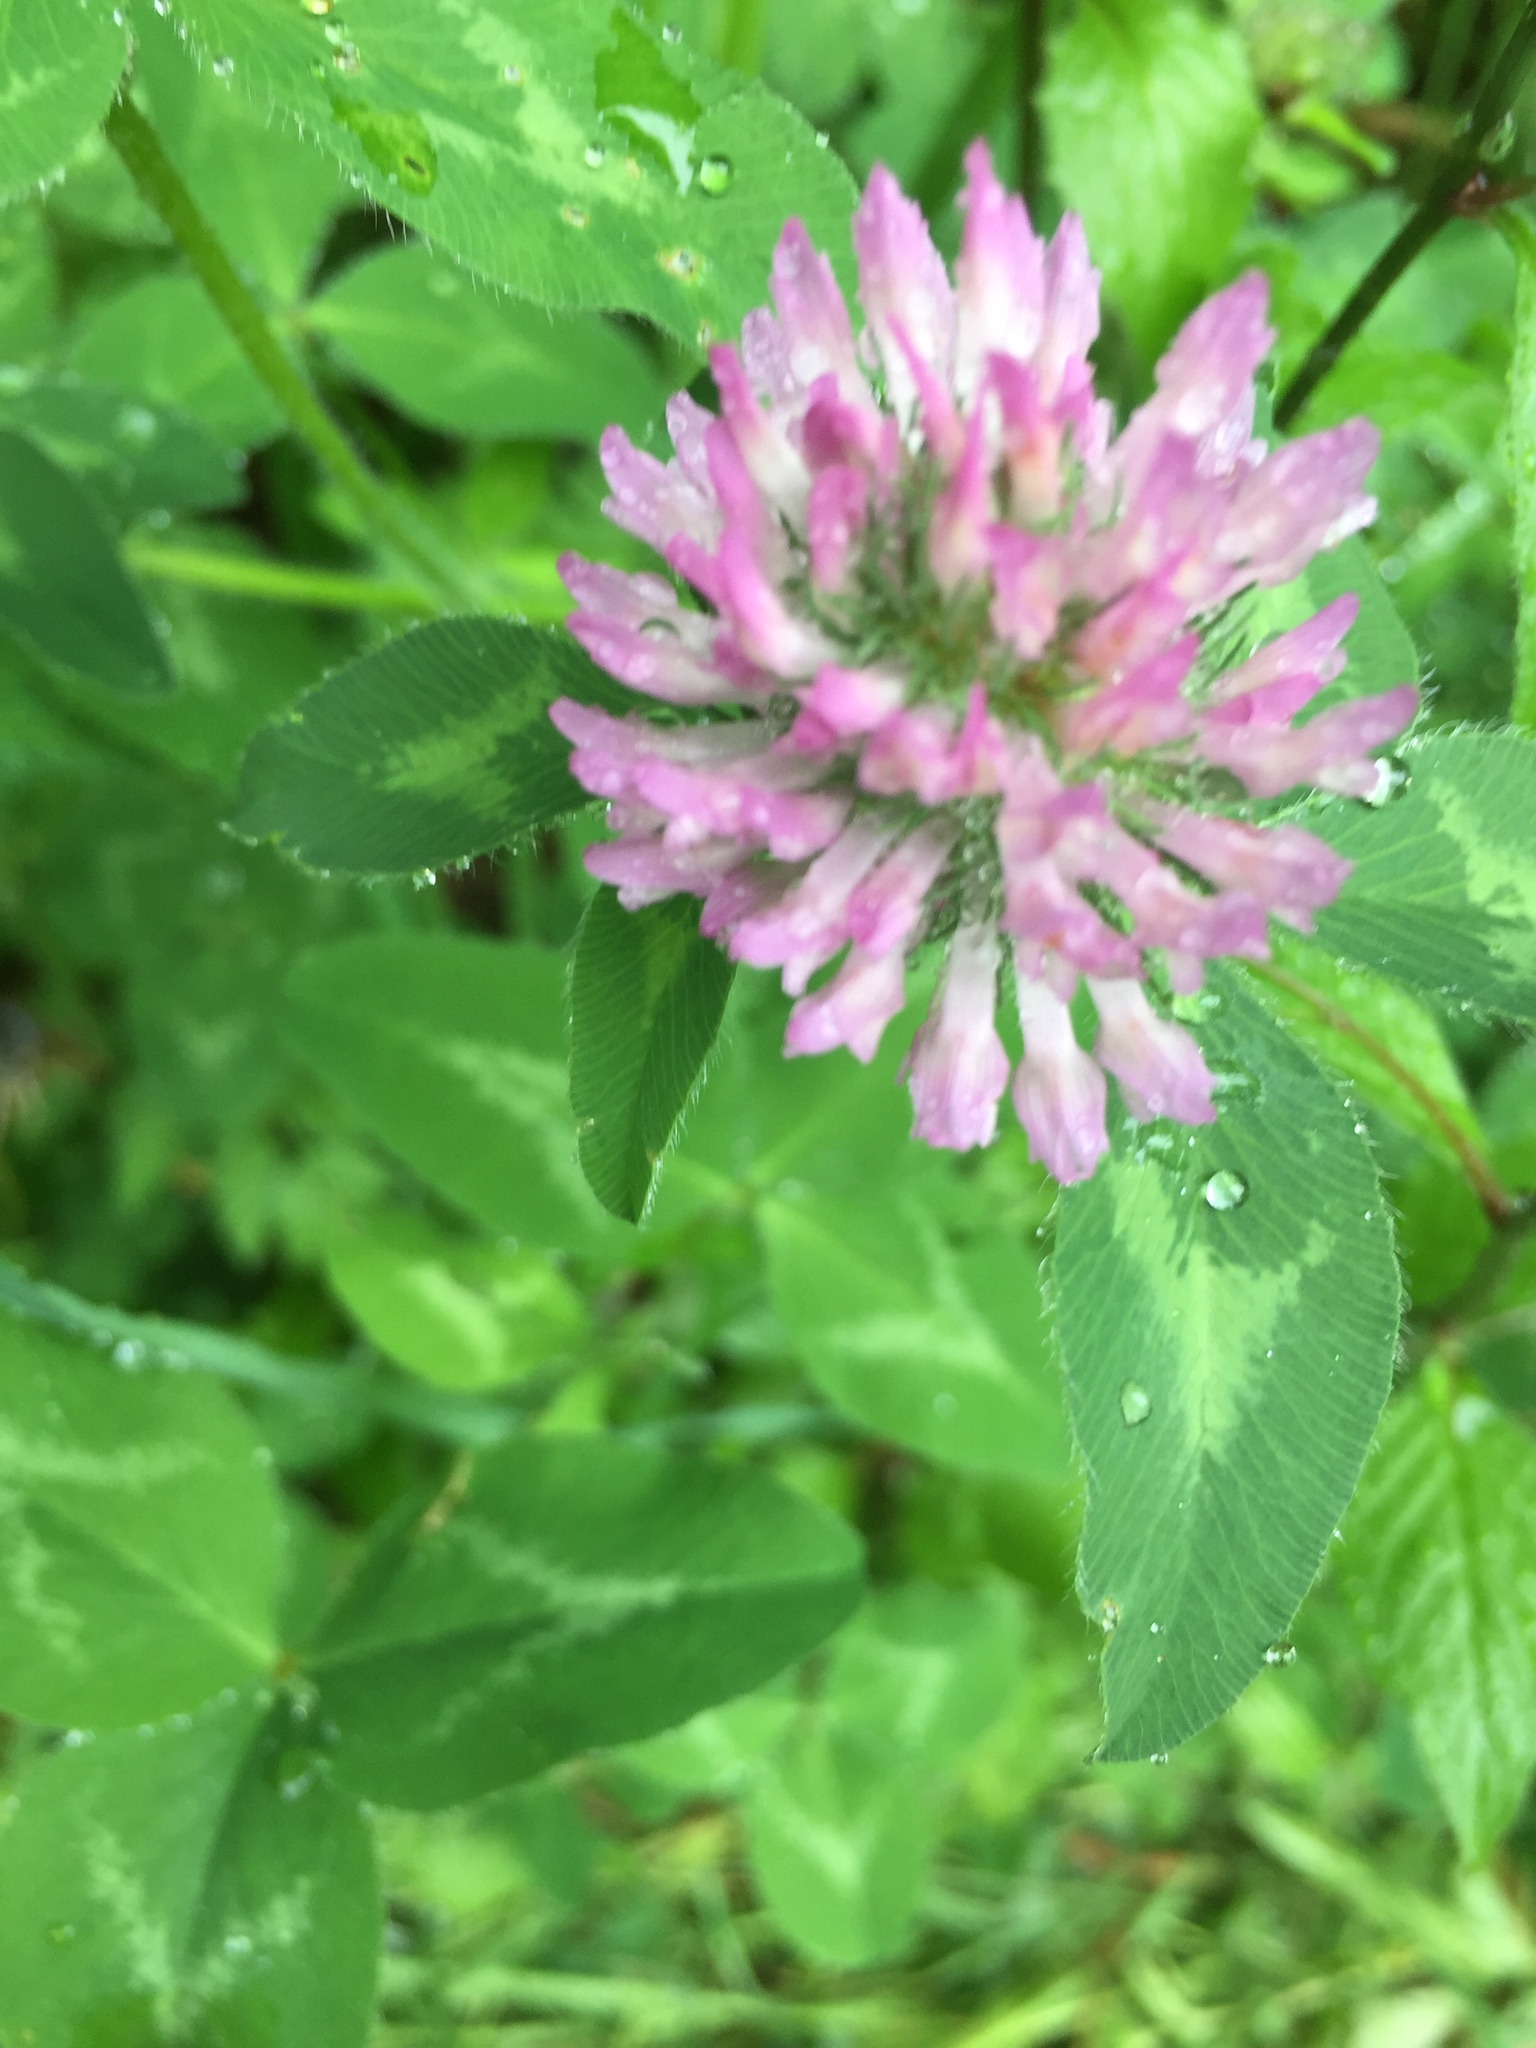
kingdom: Plantae
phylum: Tracheophyta
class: Magnoliopsida
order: Fabales
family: Fabaceae
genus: Trifolium
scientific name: Trifolium pratense
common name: Red clover
